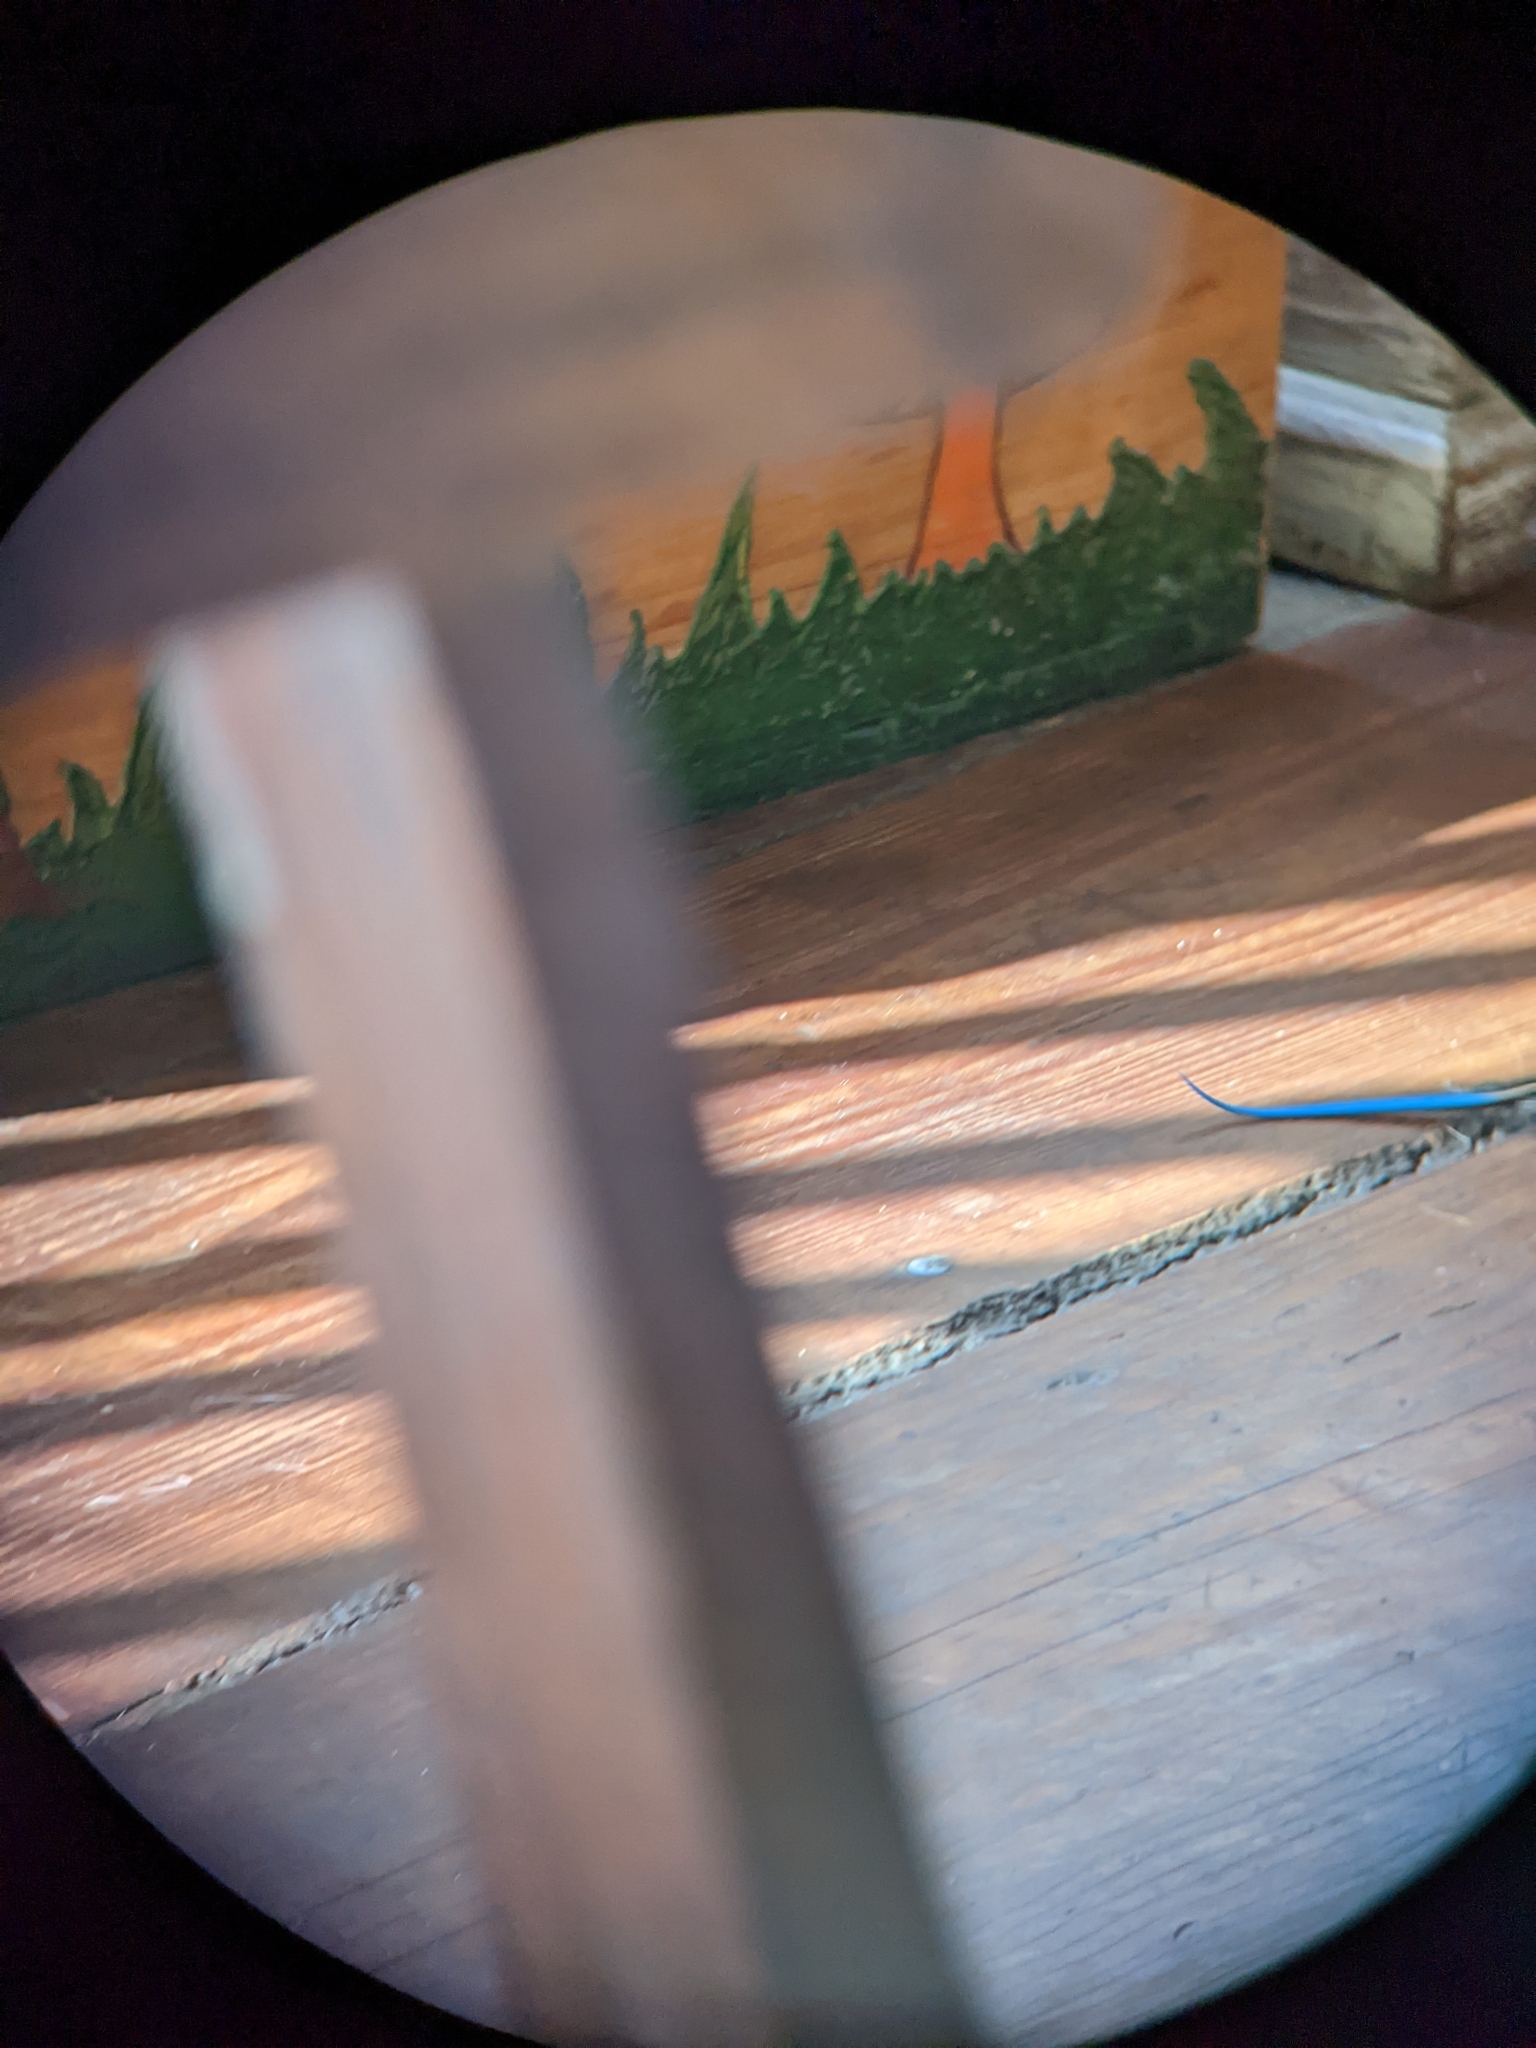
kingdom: Animalia
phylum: Chordata
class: Squamata
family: Gymnophthalmidae
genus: Tretioscincus
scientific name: Tretioscincus bifasciatus
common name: Rio magdalena tegu
